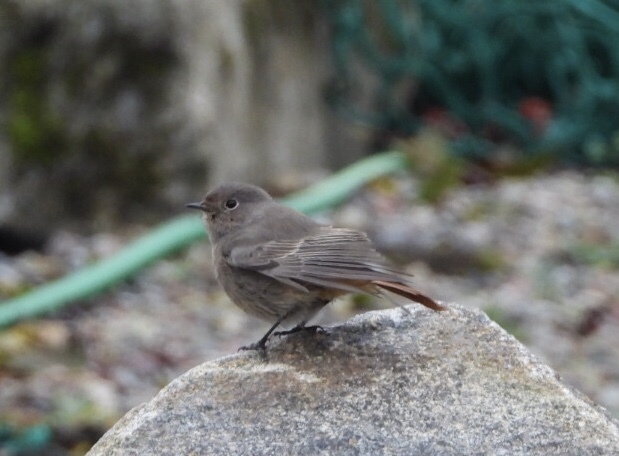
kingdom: Animalia
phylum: Chordata
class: Aves
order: Passeriformes
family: Muscicapidae
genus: Phoenicurus
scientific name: Phoenicurus ochruros
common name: Black redstart
